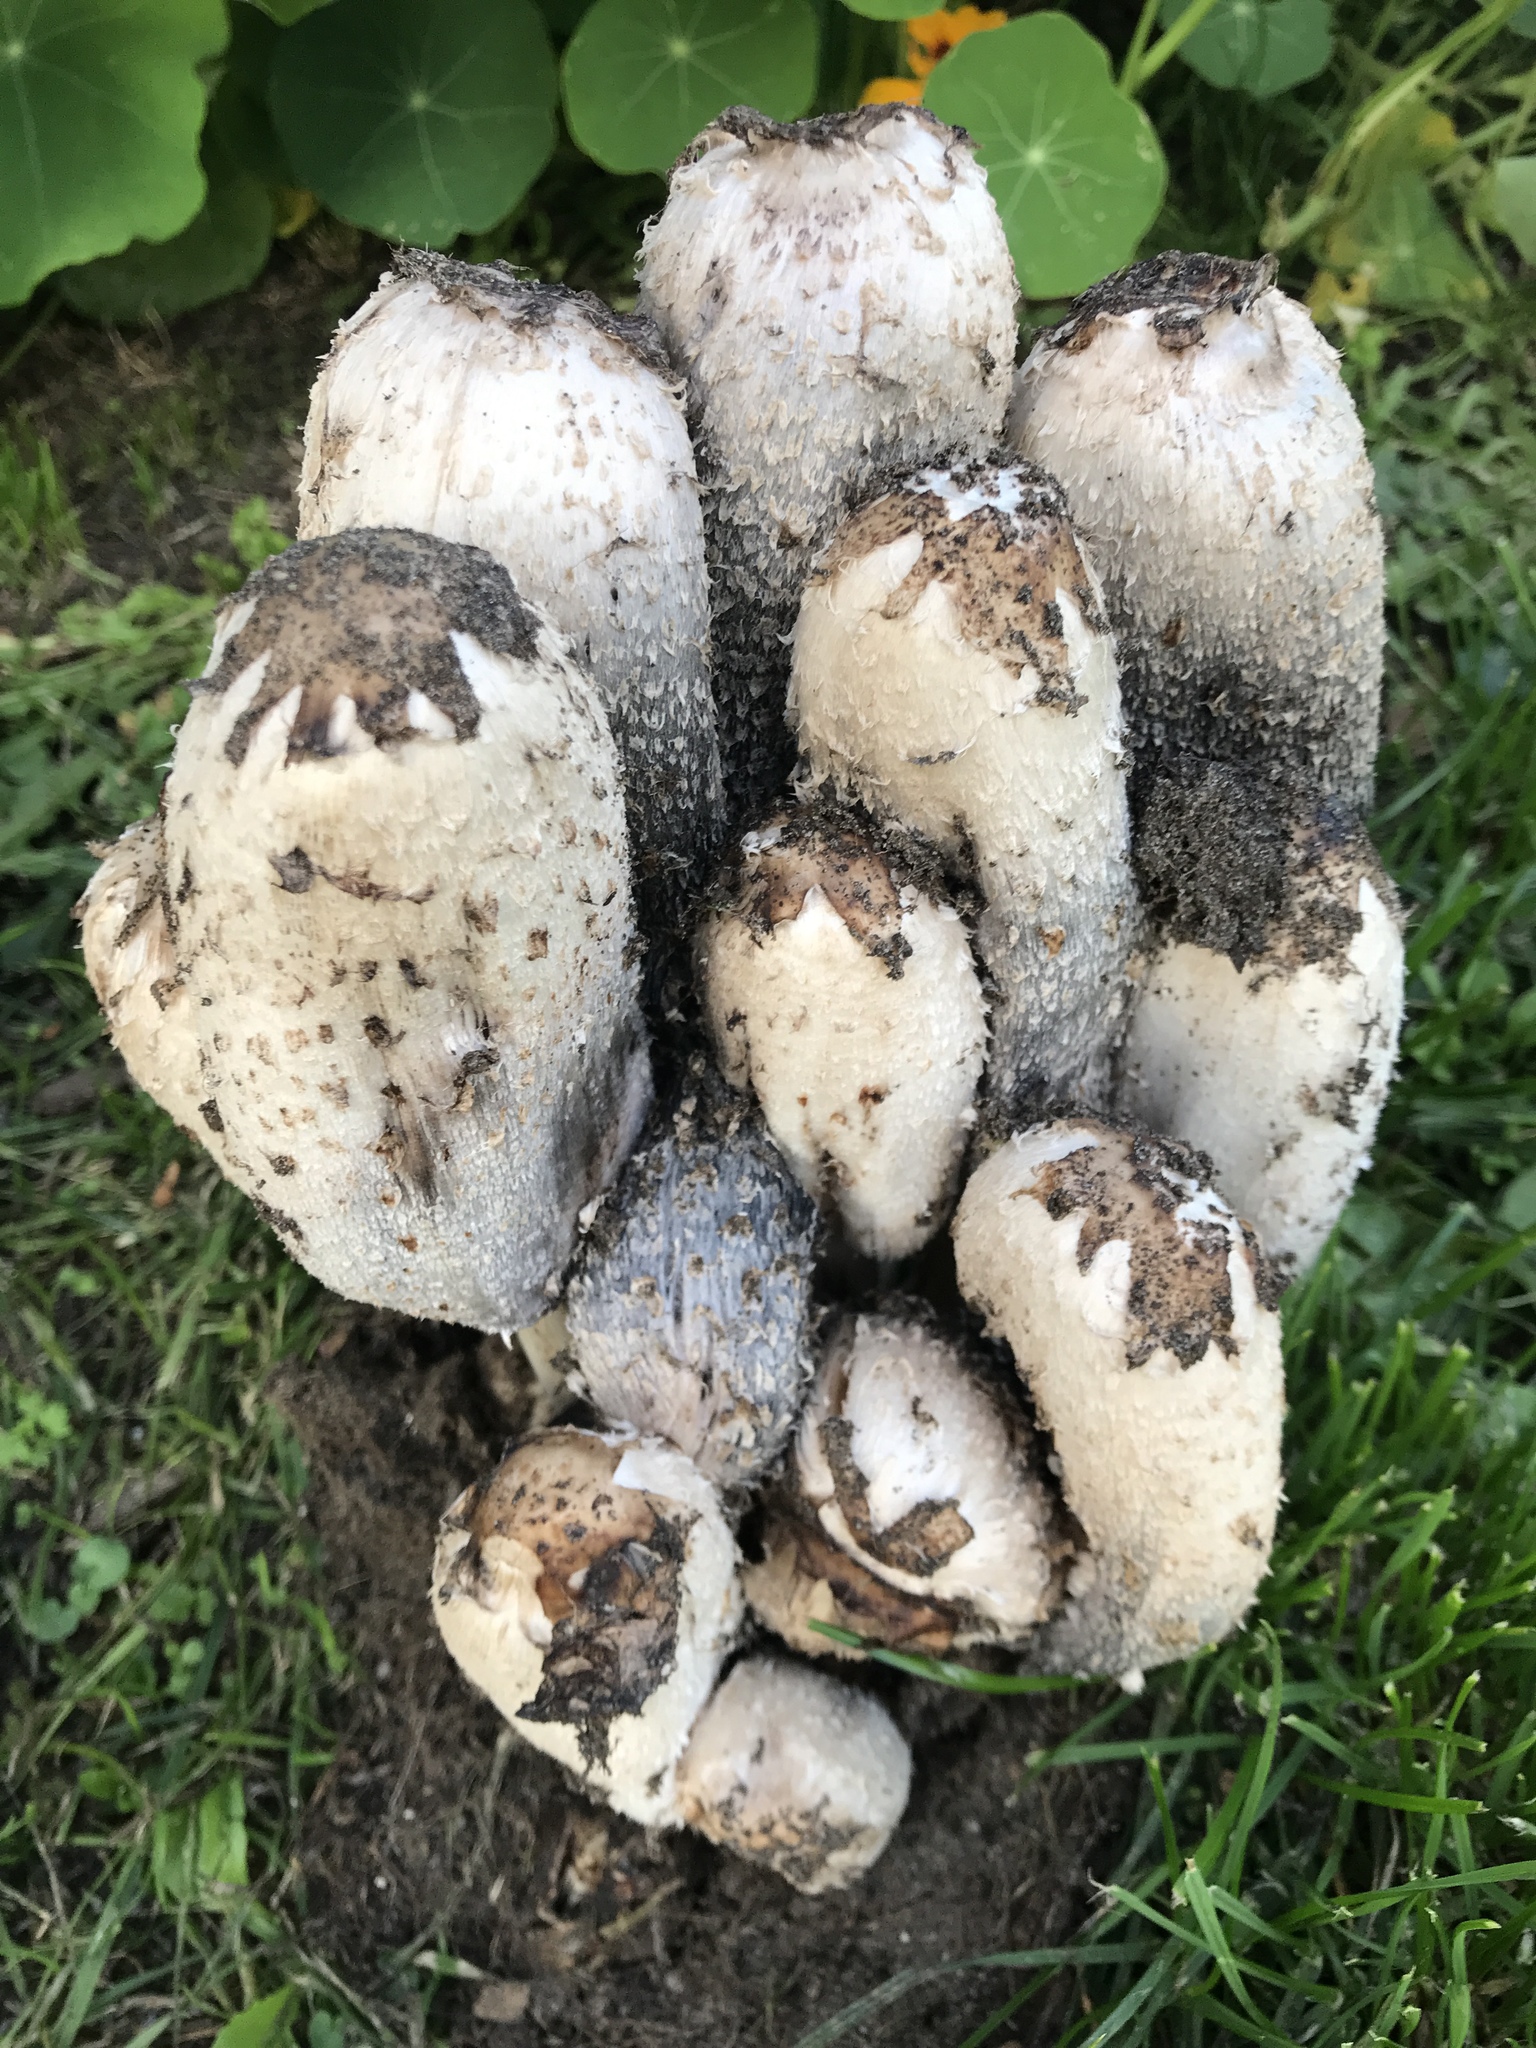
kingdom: Fungi
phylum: Basidiomycota
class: Agaricomycetes
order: Agaricales
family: Agaricaceae
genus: Coprinus
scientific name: Coprinus comatus
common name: Lawyer's wig
